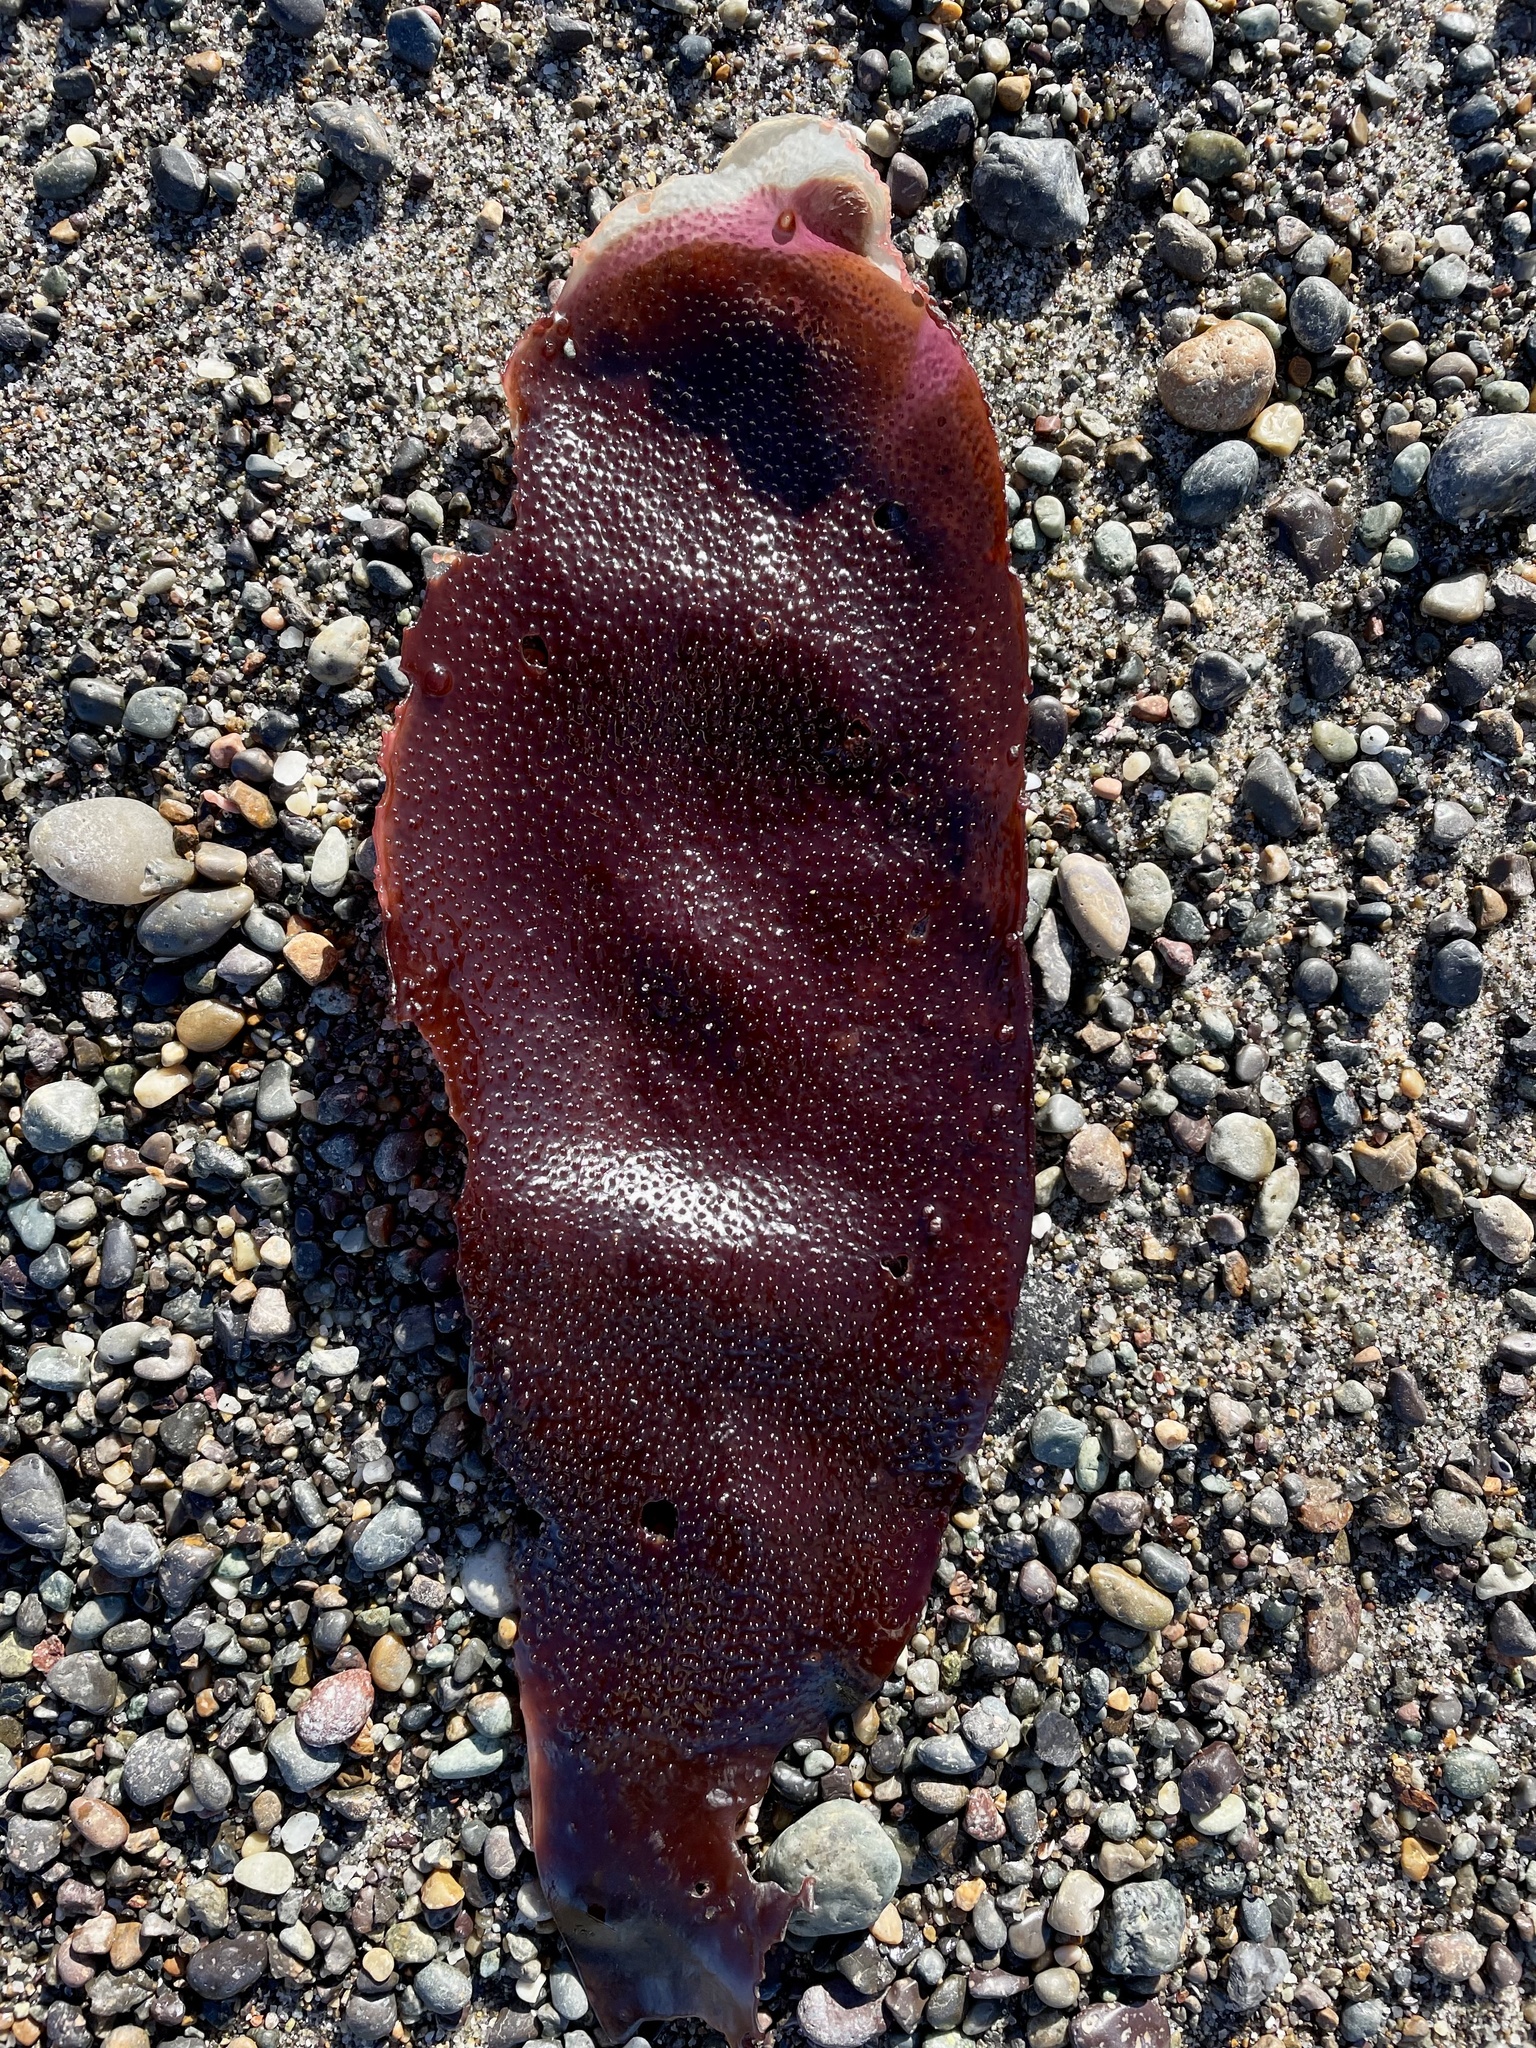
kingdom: Plantae
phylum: Rhodophyta
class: Florideophyceae
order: Gigartinales
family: Gigartinaceae
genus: Chondracanthus
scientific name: Chondracanthus exasperatus
